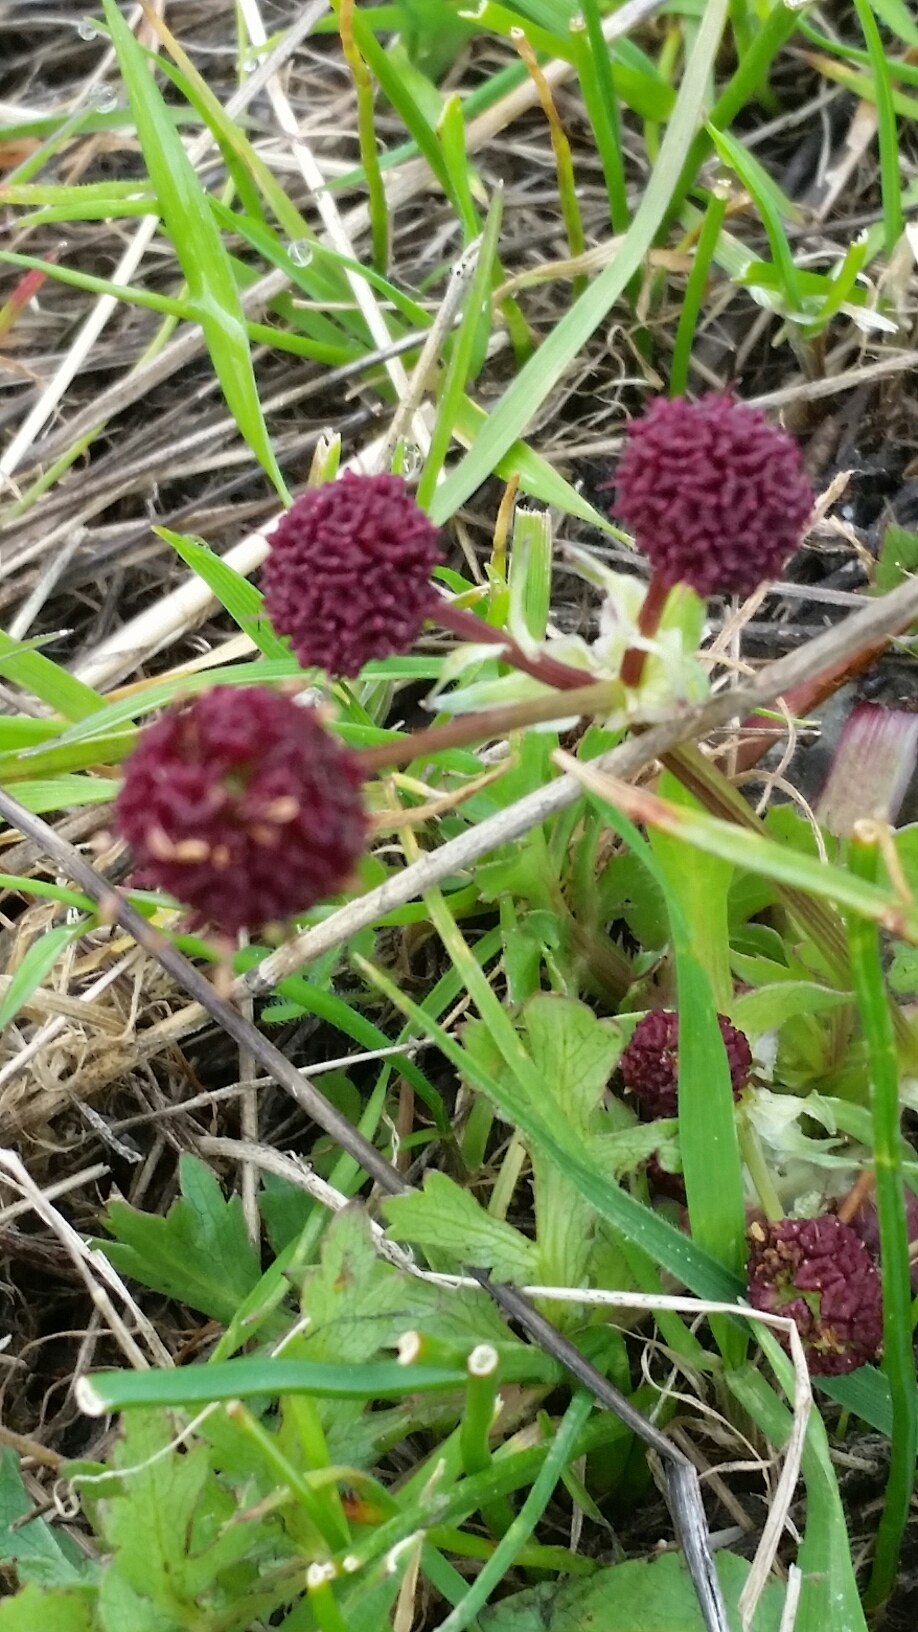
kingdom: Plantae
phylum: Tracheophyta
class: Magnoliopsida
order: Apiales
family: Apiaceae
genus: Sanicula
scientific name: Sanicula bipinnatifida
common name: Shoe-buttons
